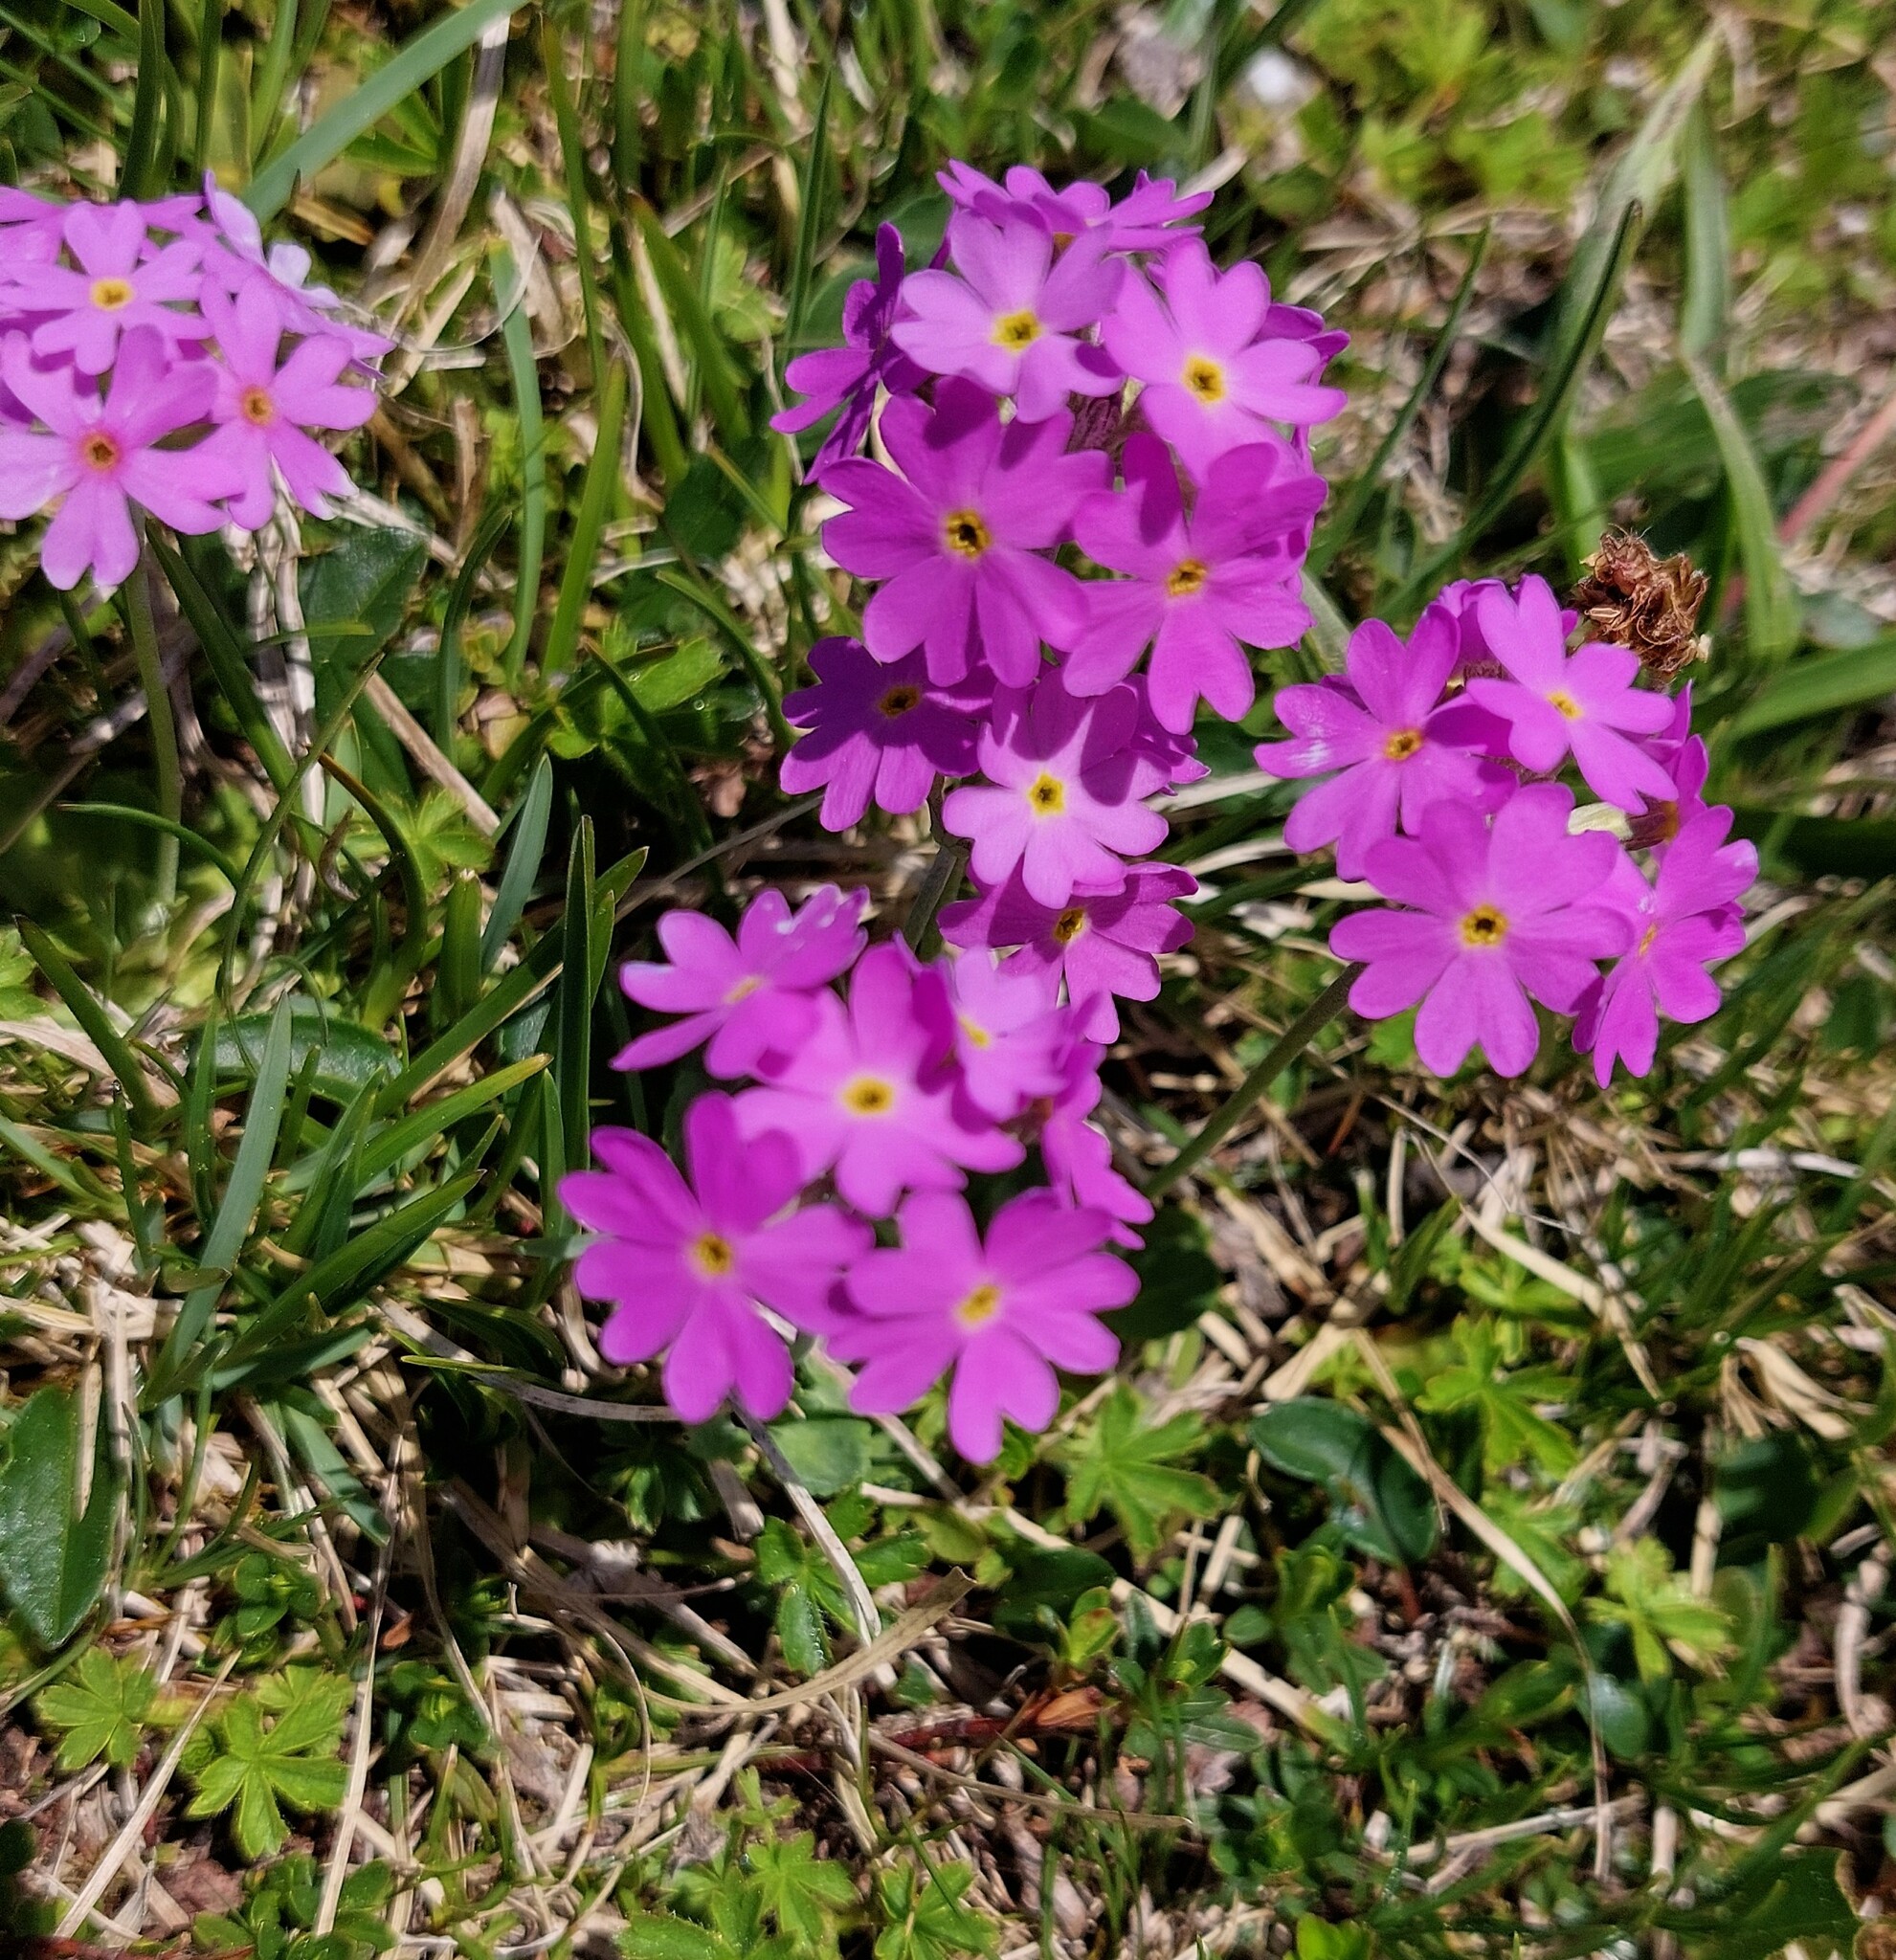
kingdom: Plantae
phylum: Tracheophyta
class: Magnoliopsida
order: Ericales
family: Primulaceae
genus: Primula
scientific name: Primula farinosa
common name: Bird's-eye primrose
